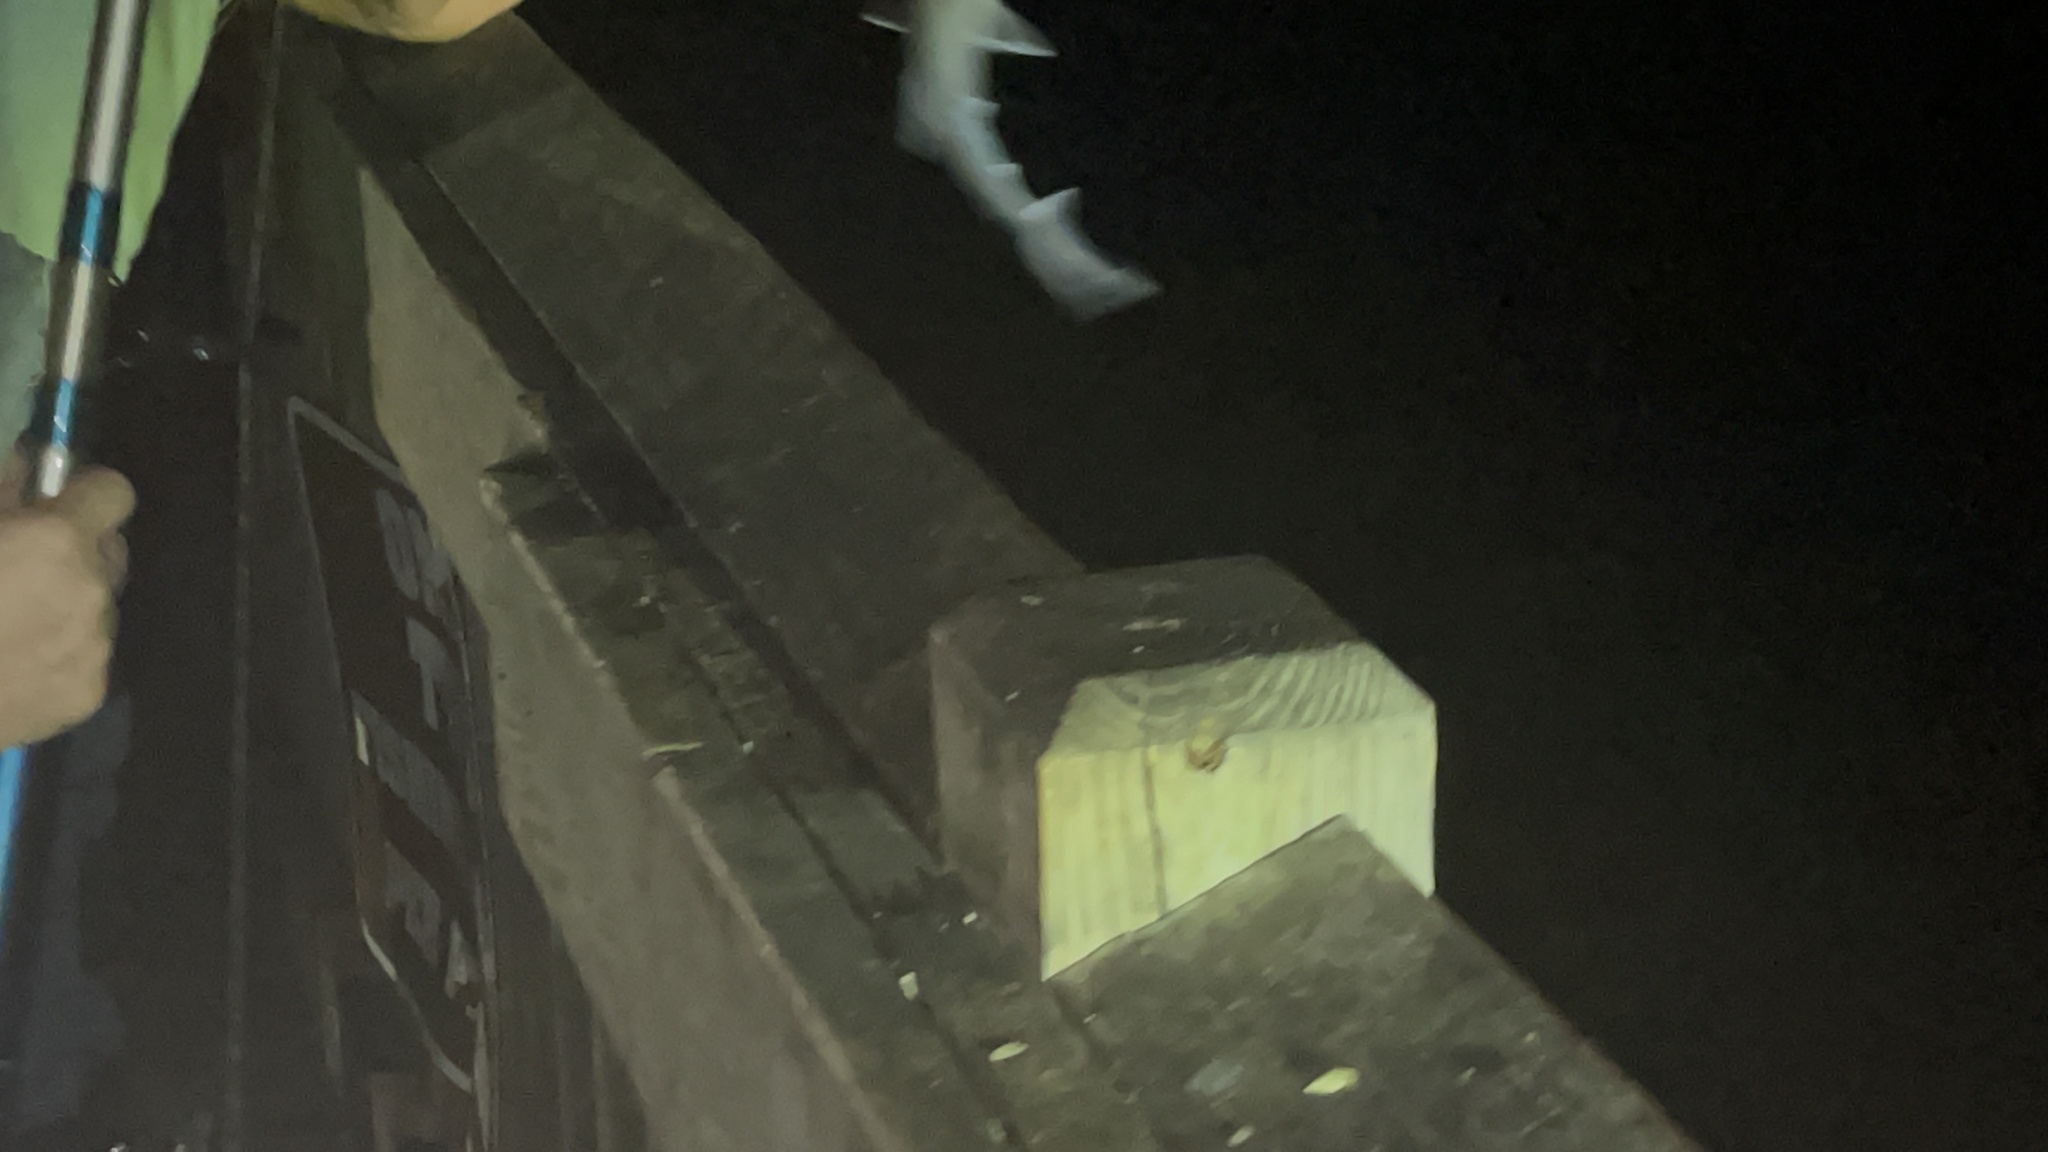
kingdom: Animalia
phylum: Chordata
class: Elasmobranchii
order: Carcharhiniformes
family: Carcharhinidae
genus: Rhizoprionodon
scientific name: Rhizoprionodon terraenovae
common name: Atlantic sharpnose shark
